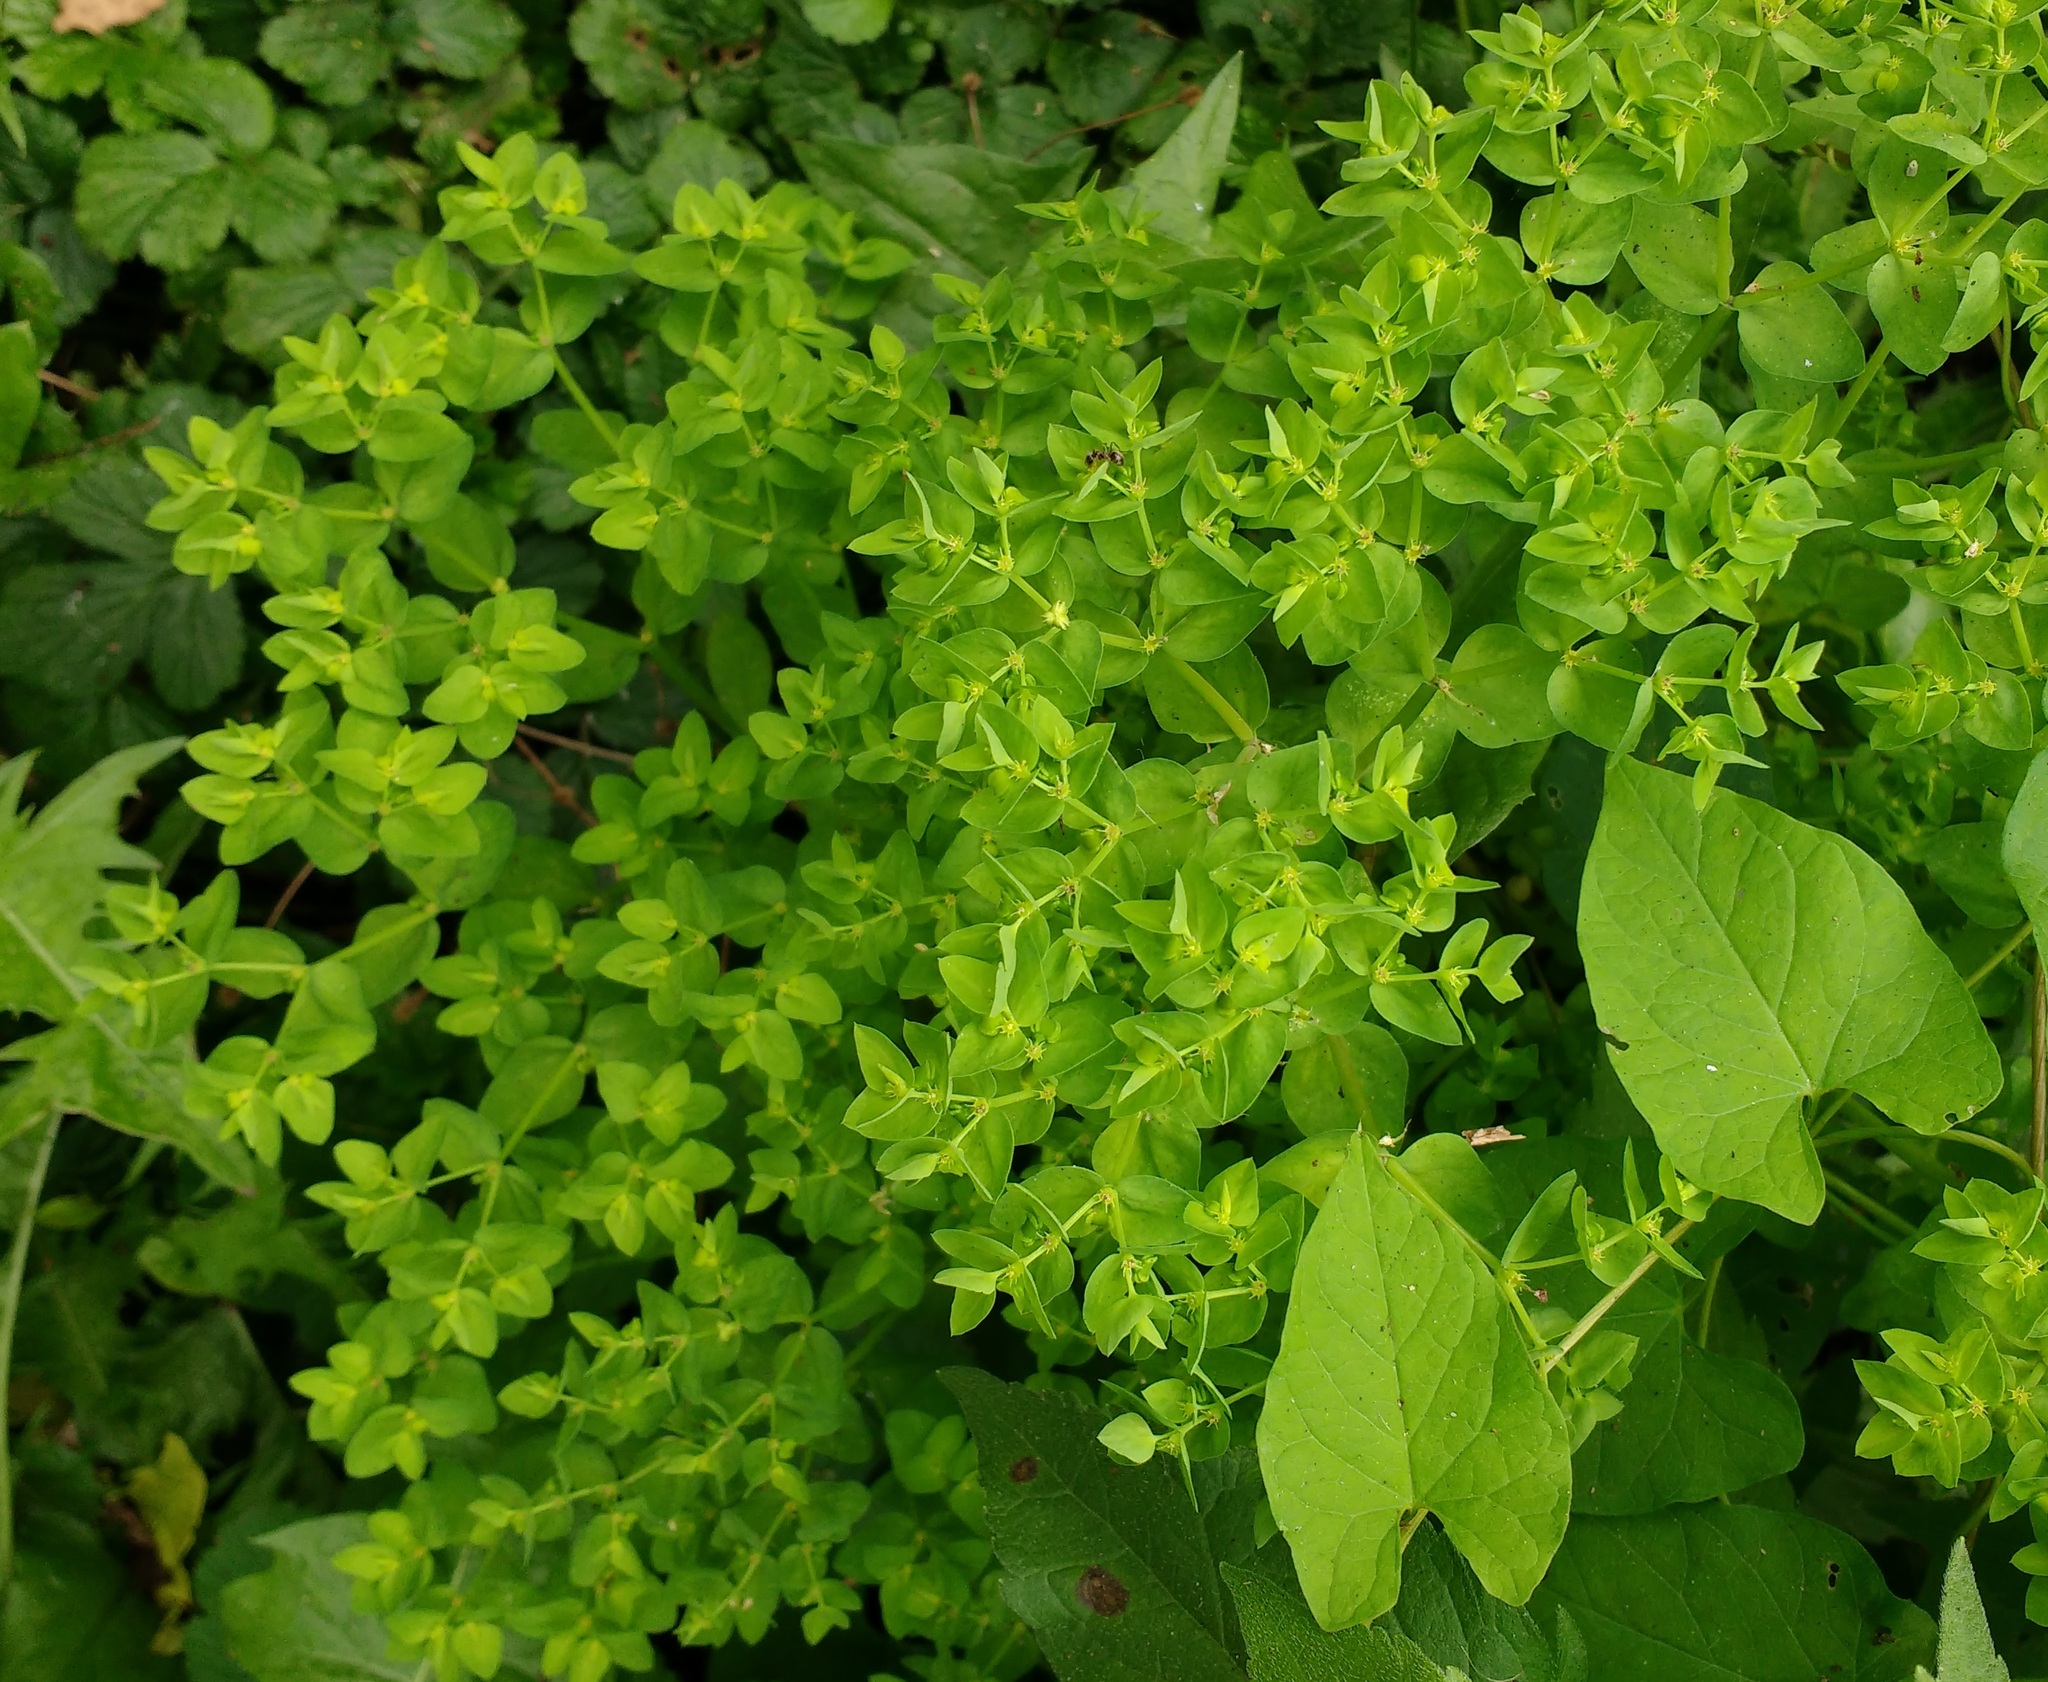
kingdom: Plantae
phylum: Tracheophyta
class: Magnoliopsida
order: Malpighiales
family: Euphorbiaceae
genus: Euphorbia
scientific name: Euphorbia peplus
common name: Petty spurge
